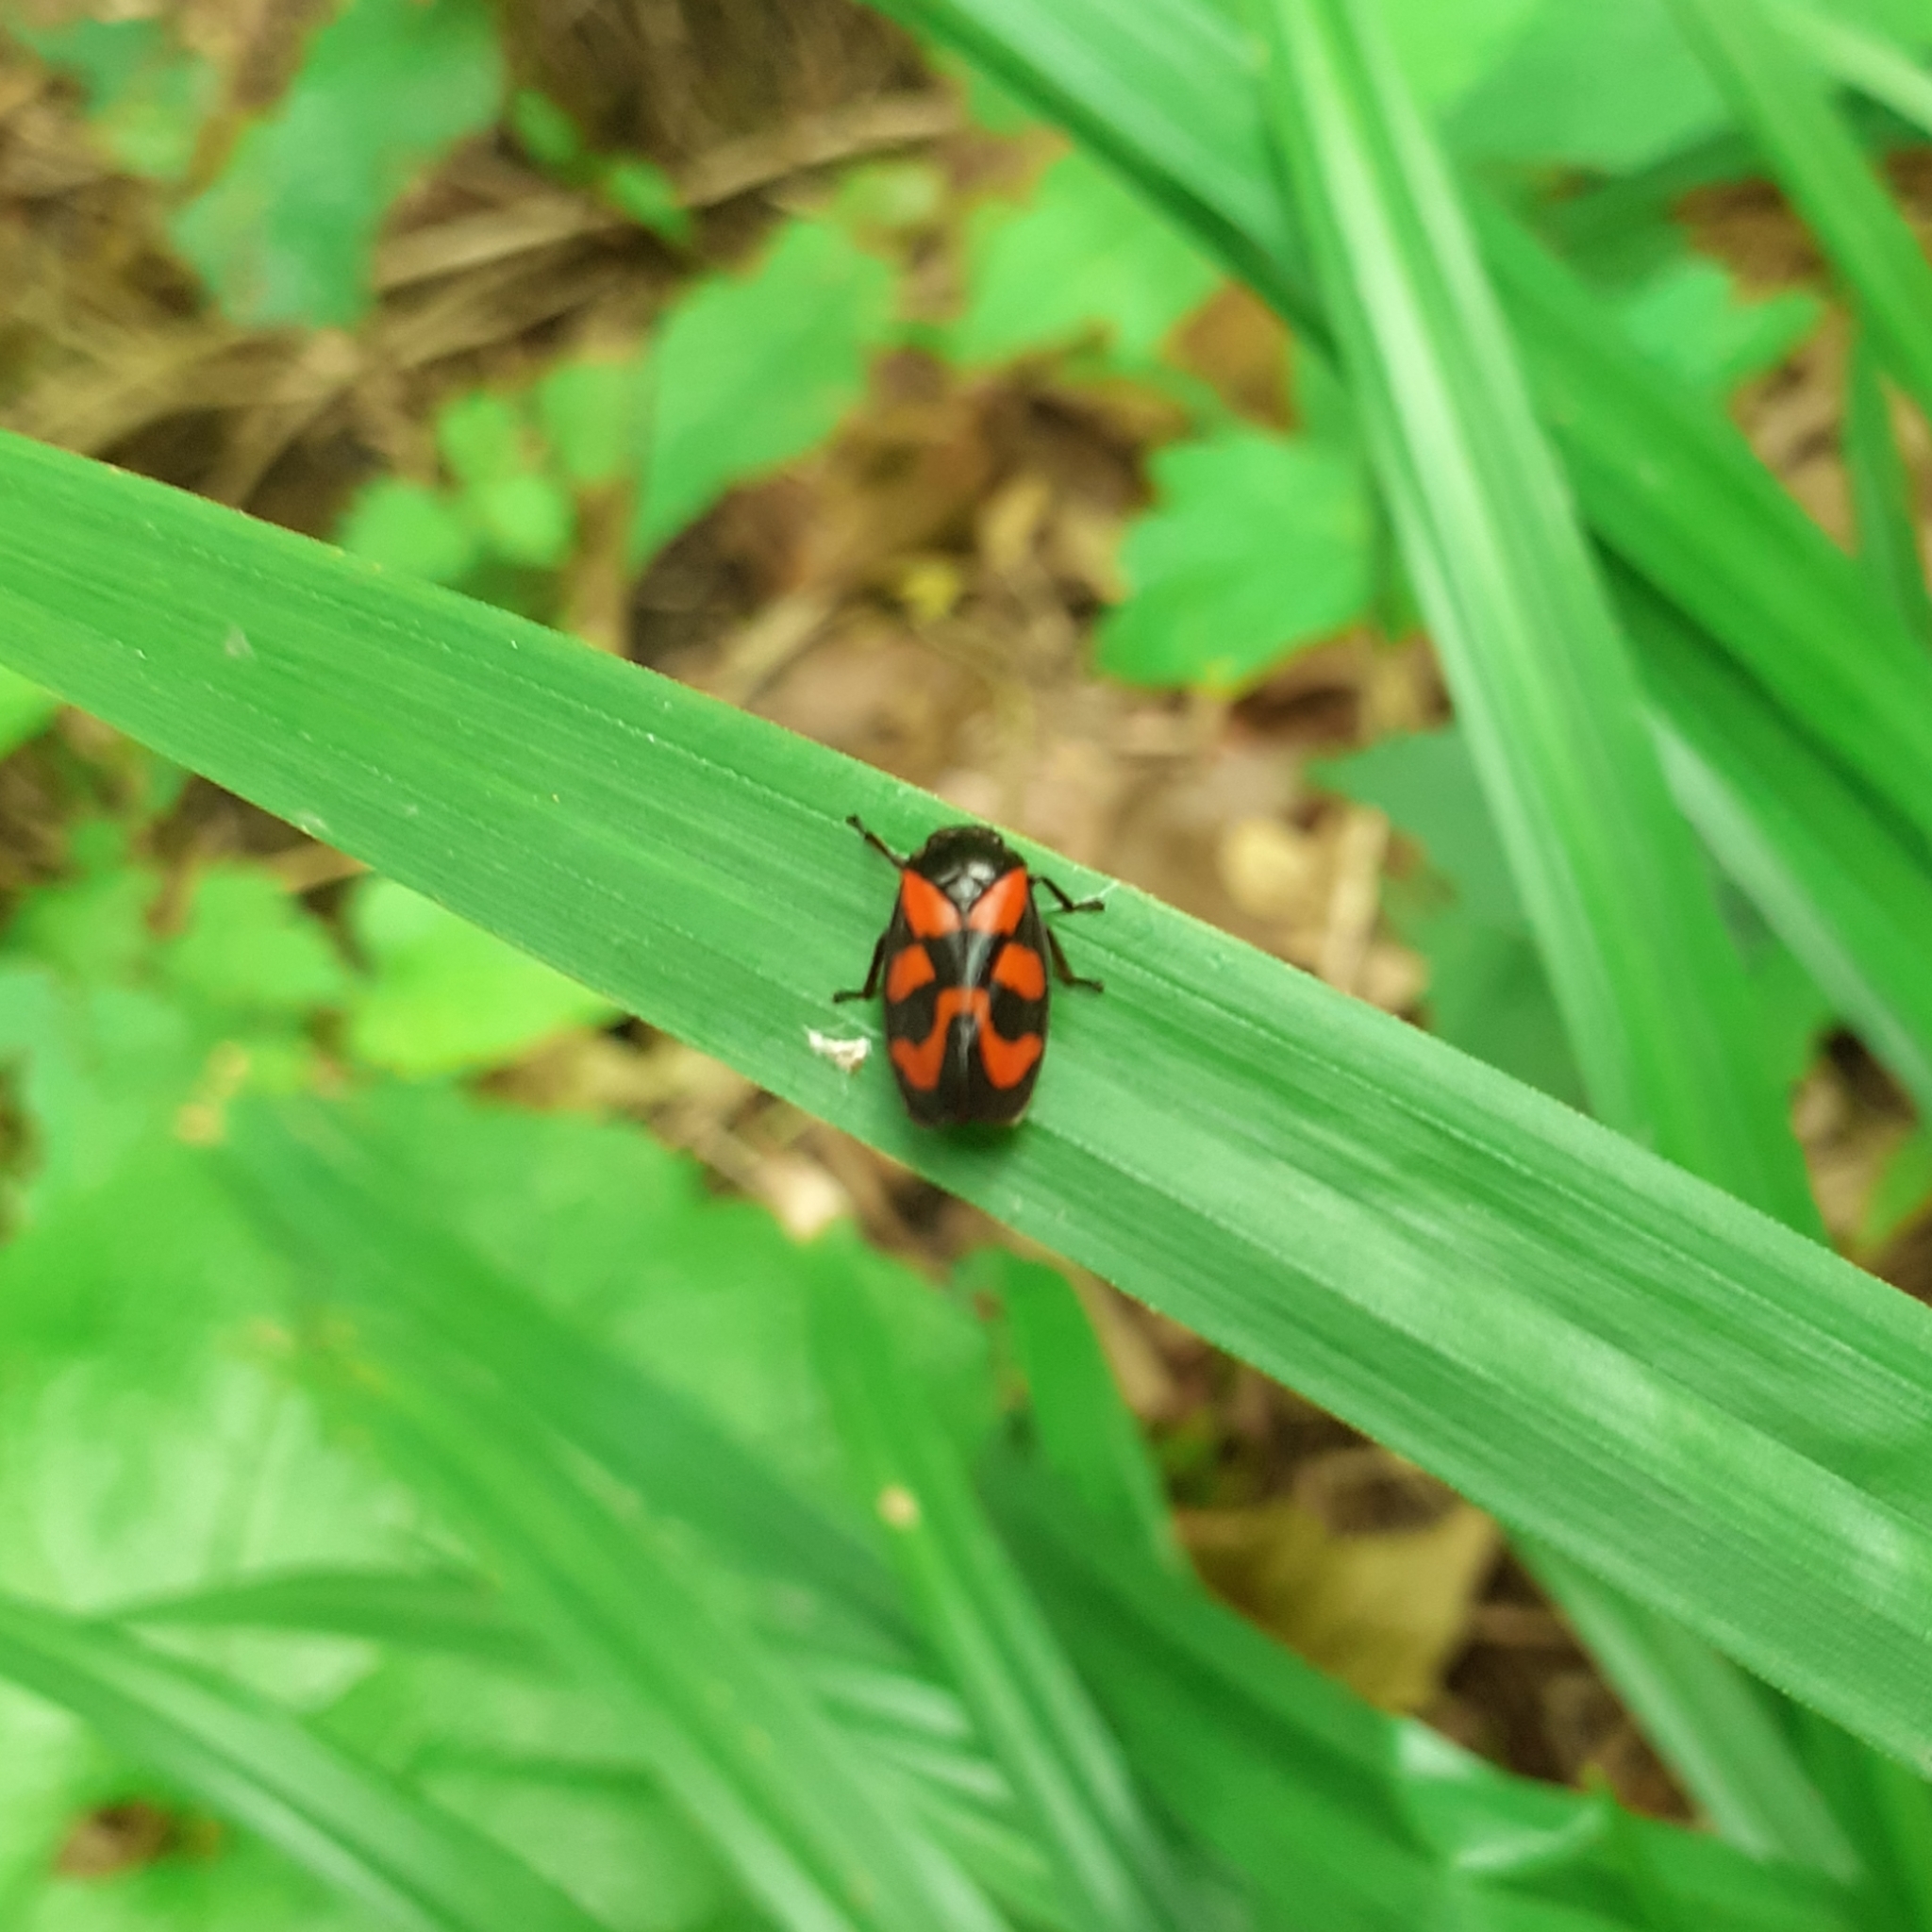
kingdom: Animalia
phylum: Arthropoda
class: Insecta
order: Hemiptera
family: Cercopidae
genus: Cercopis
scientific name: Cercopis vulnerata
